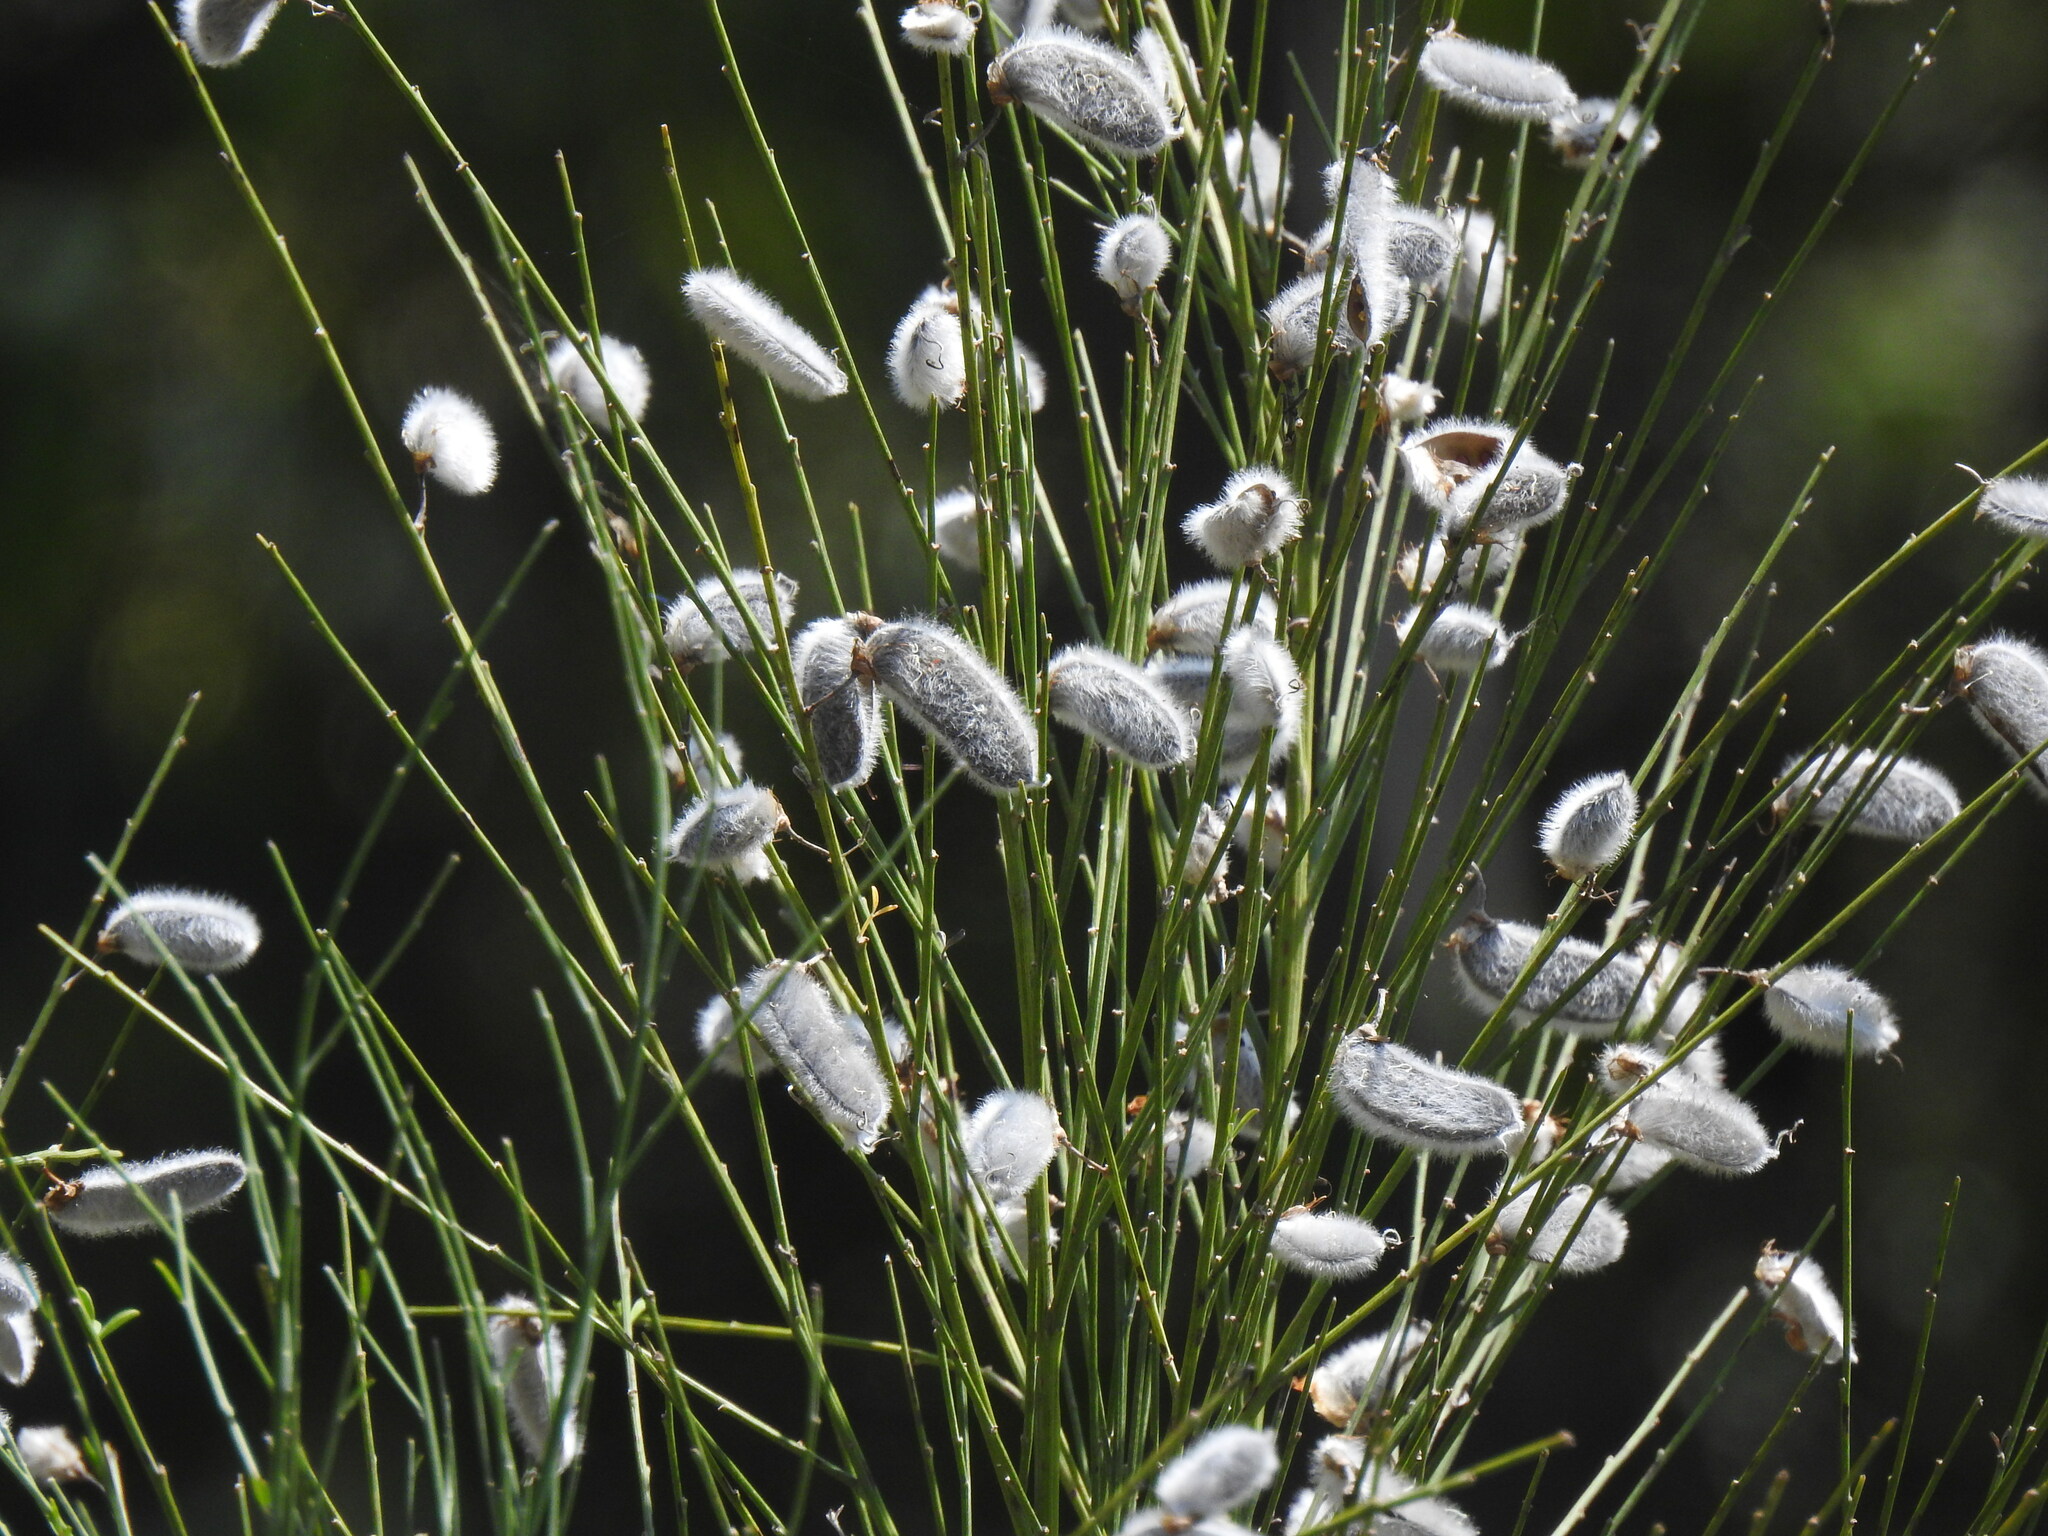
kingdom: Plantae
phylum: Tracheophyta
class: Magnoliopsida
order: Fabales
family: Fabaceae
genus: Cytisus
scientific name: Cytisus striatus
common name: Hairy-fruited broom
